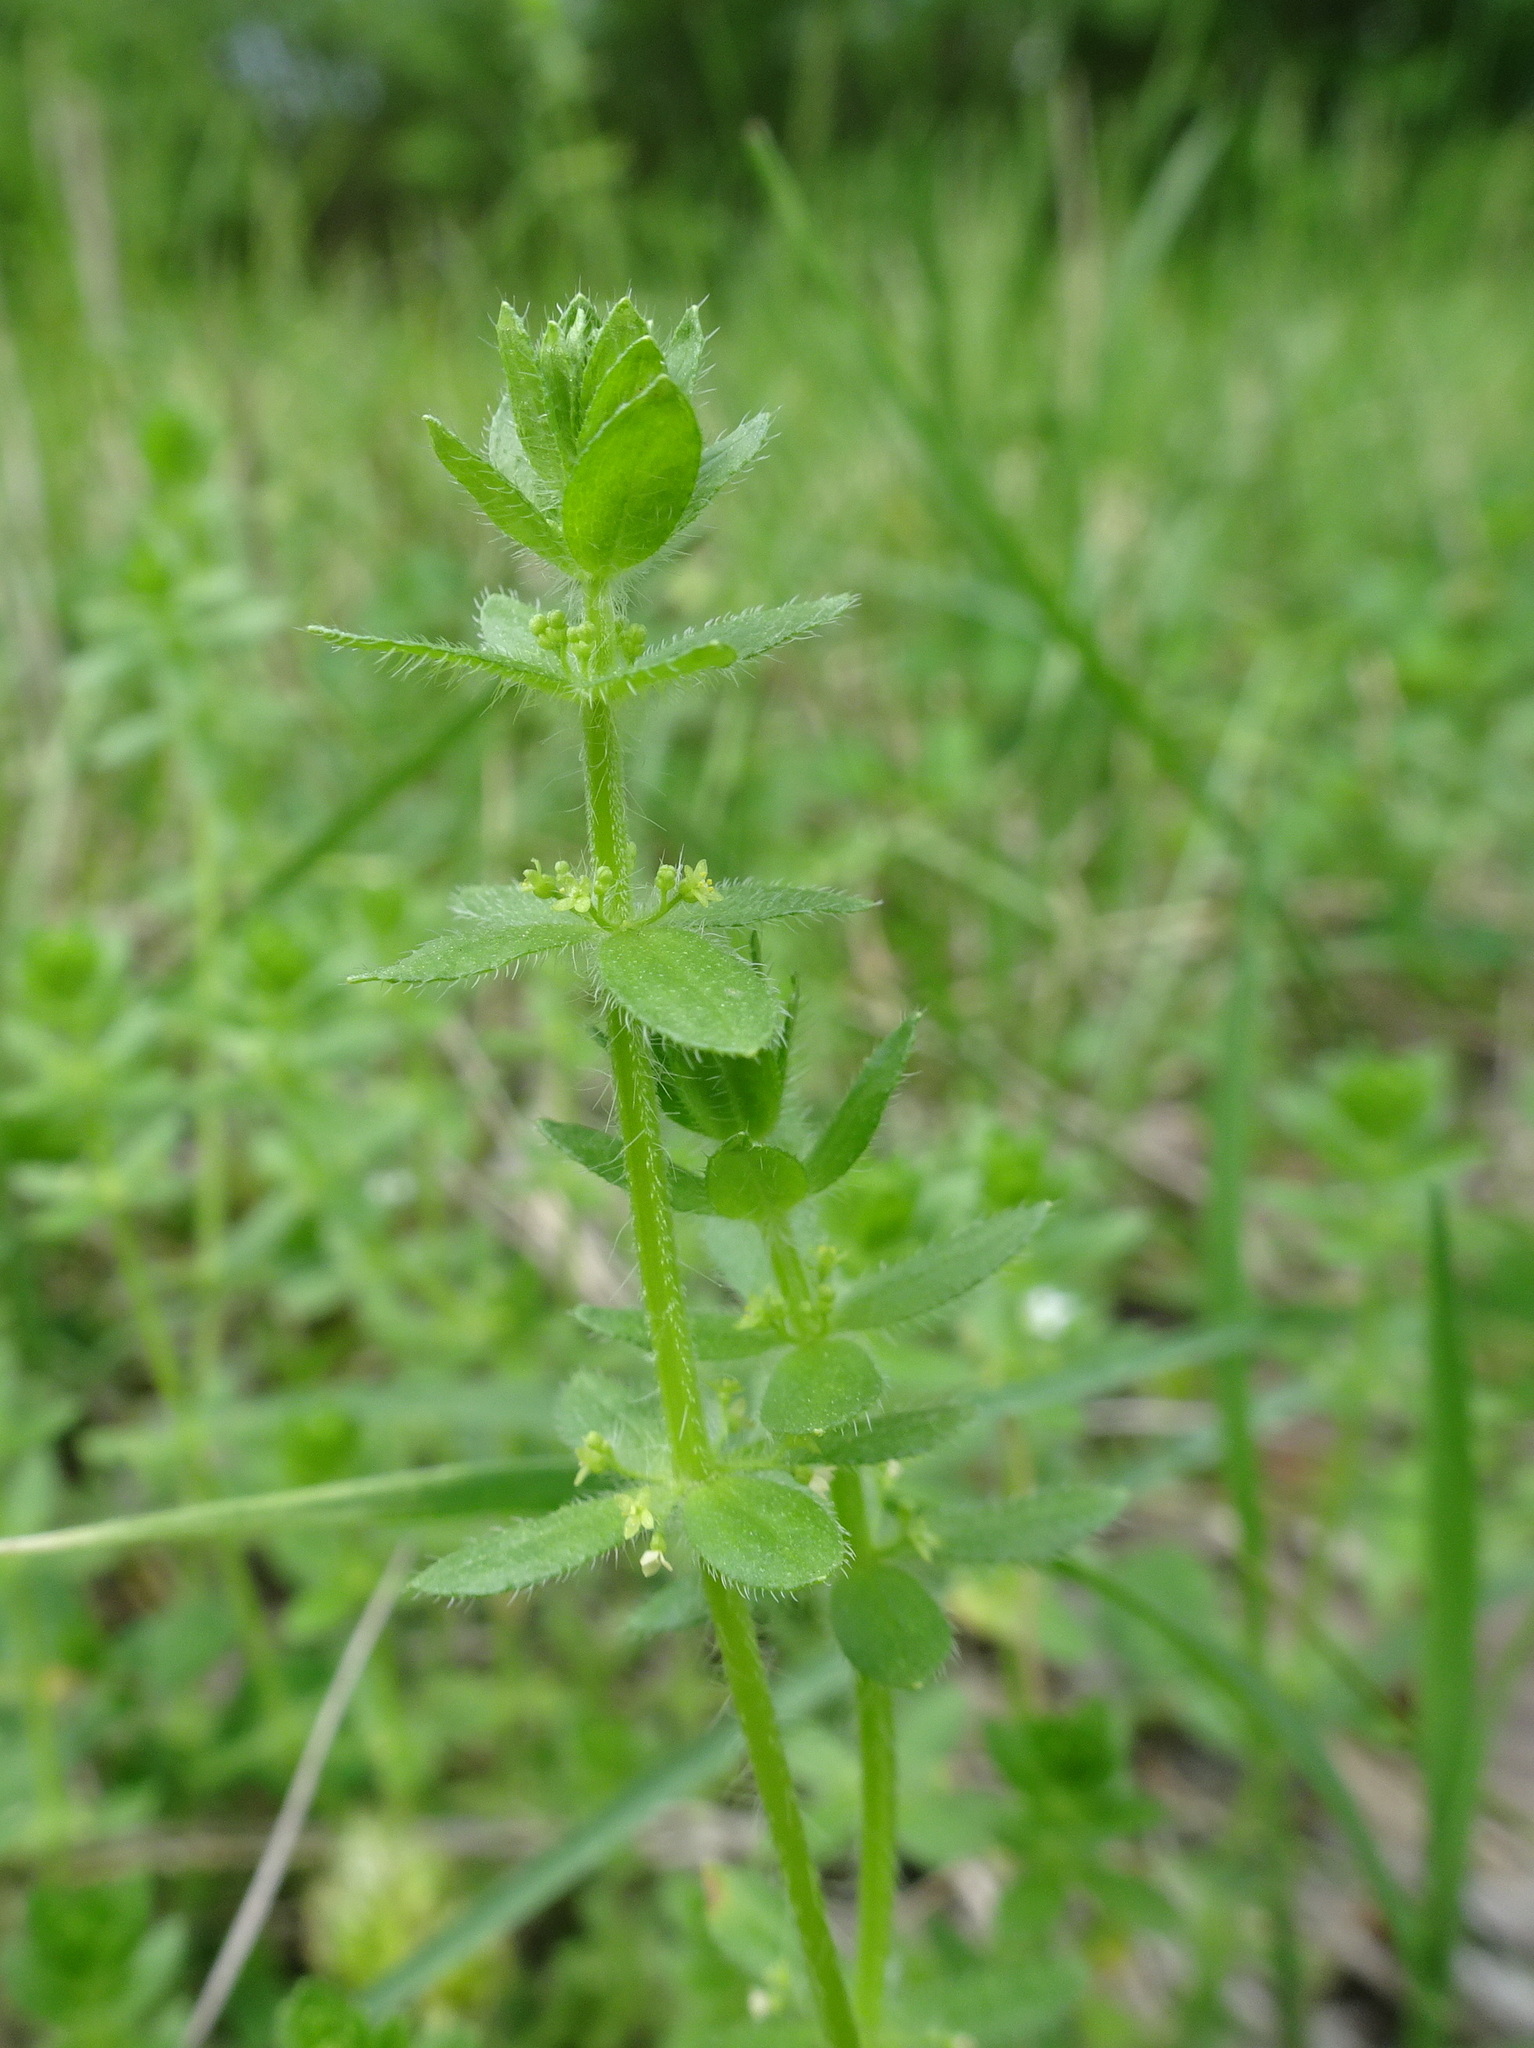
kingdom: Plantae
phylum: Tracheophyta
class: Magnoliopsida
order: Gentianales
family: Rubiaceae
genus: Cruciata
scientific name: Cruciata pedemontana
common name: Piedmont bedstraw
